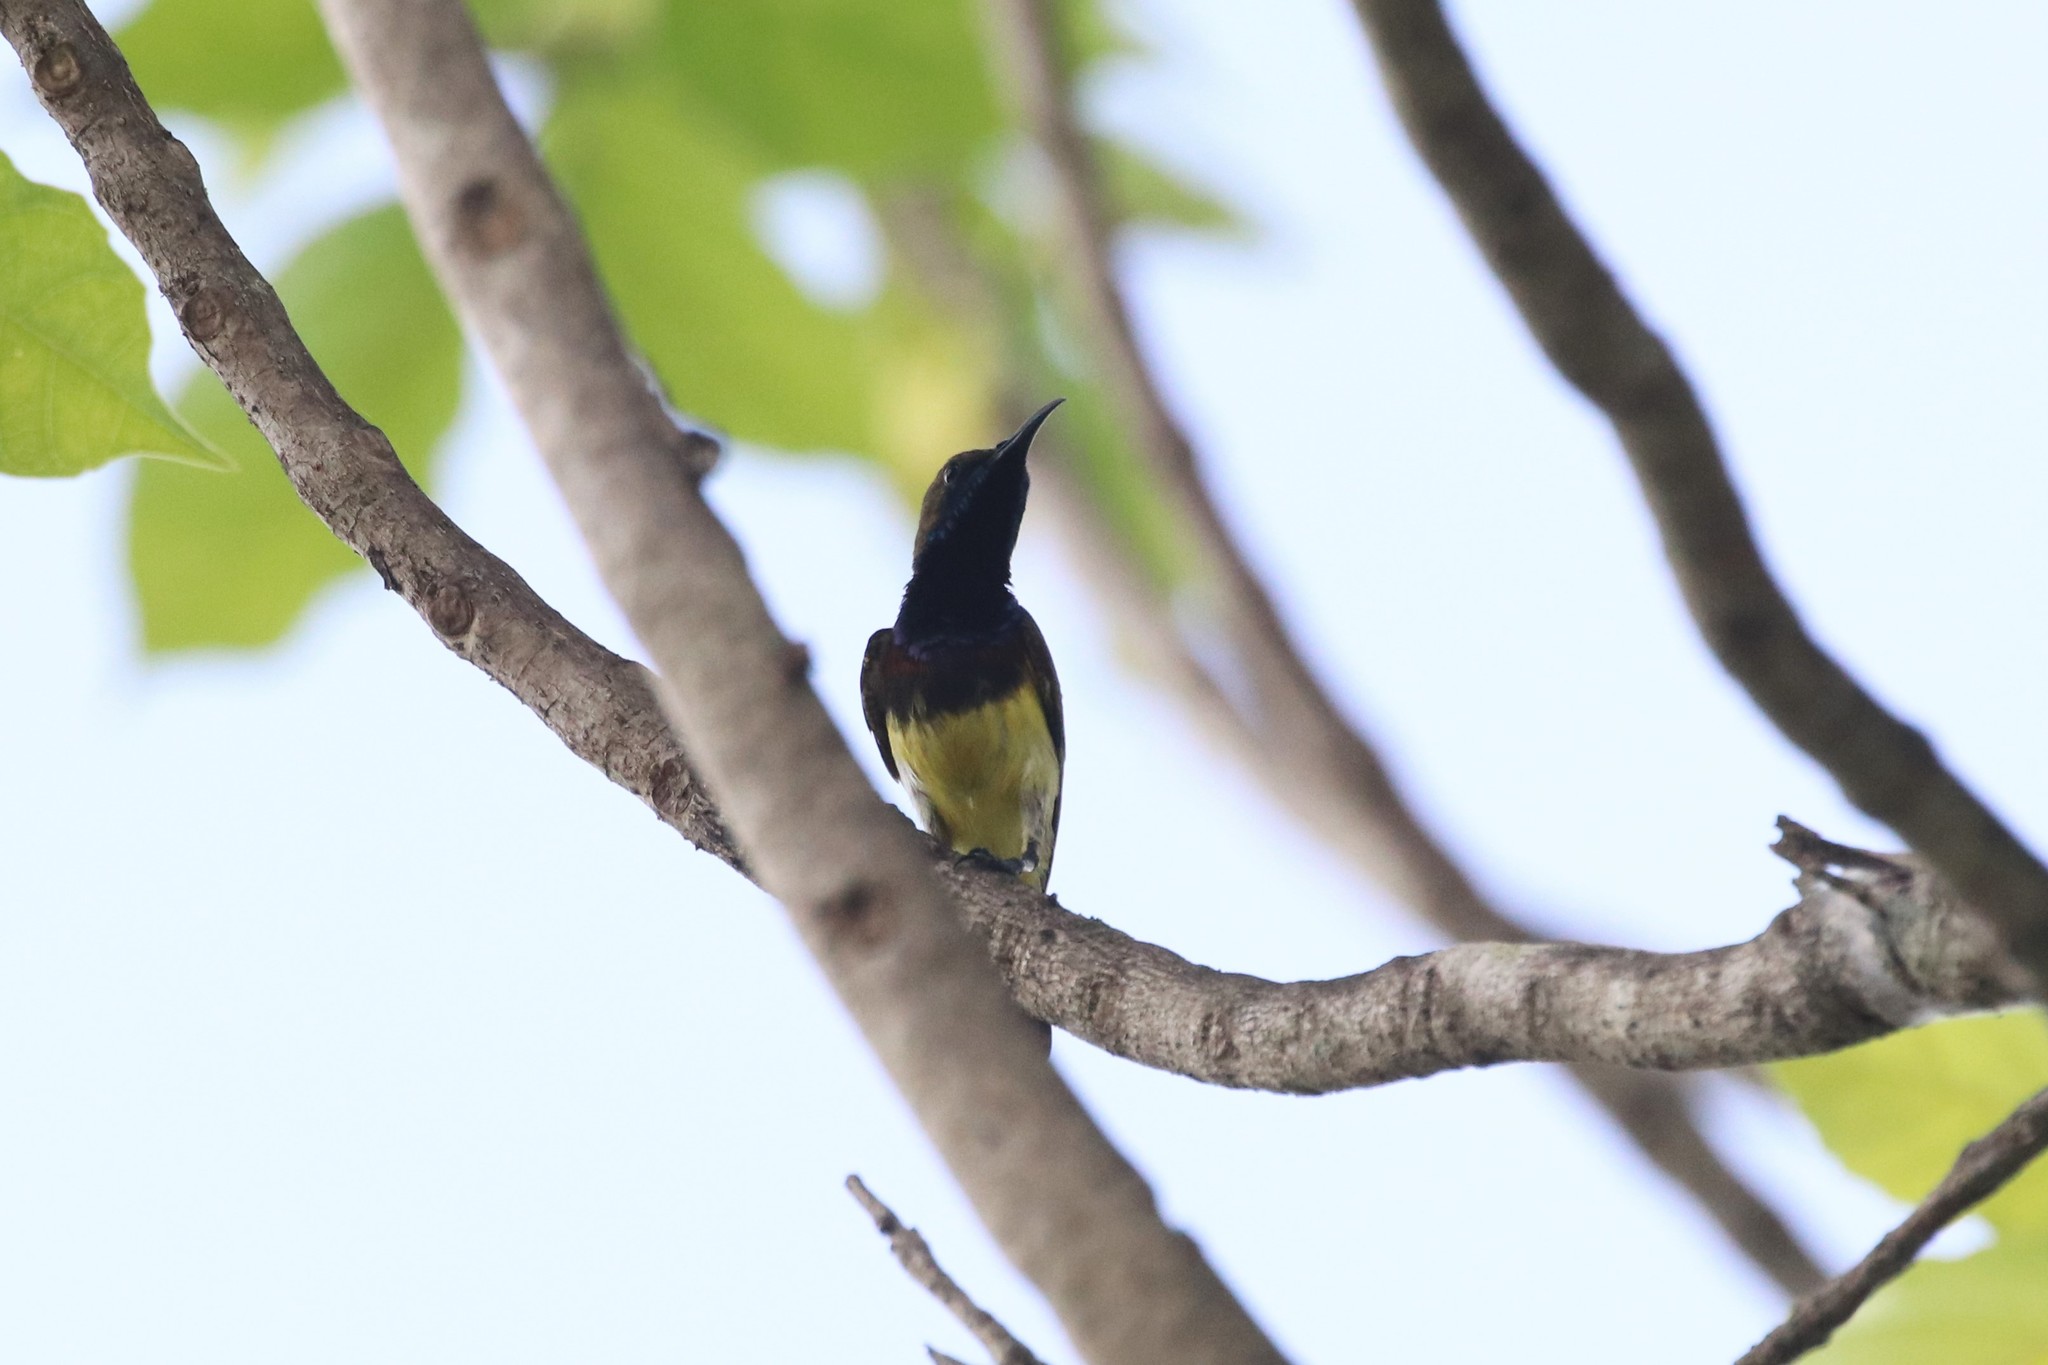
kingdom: Animalia
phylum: Chordata
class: Aves
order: Passeriformes
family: Nectariniidae
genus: Cinnyris
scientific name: Cinnyris
